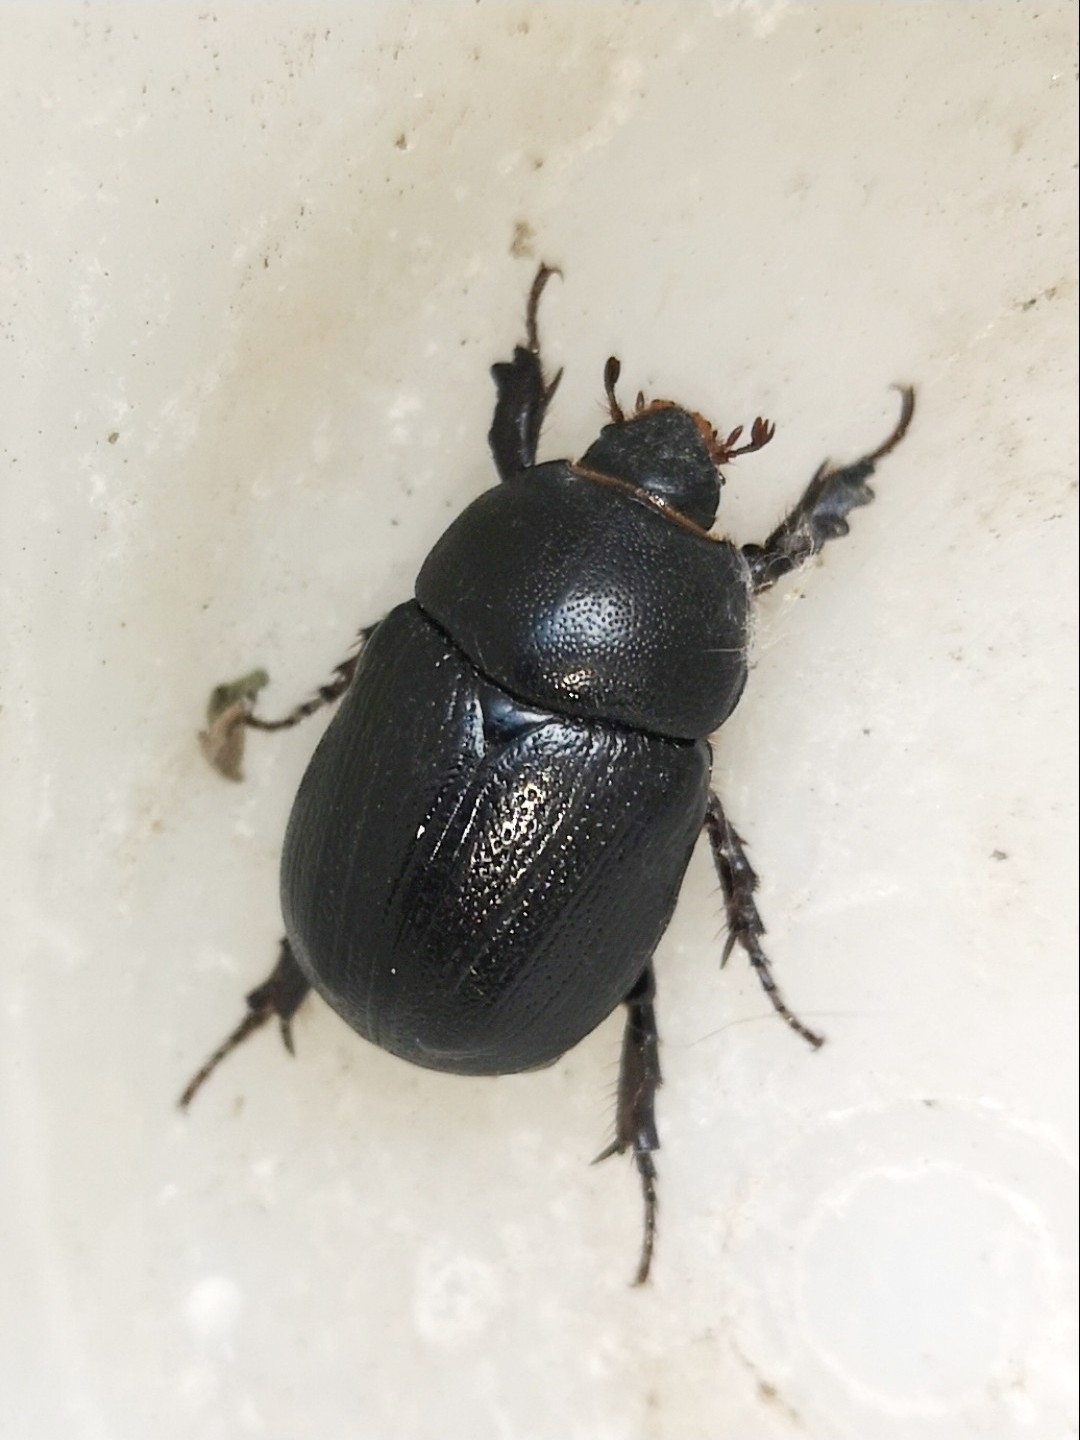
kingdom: Animalia
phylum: Arthropoda
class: Insecta
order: Coleoptera
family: Scarabaeidae
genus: Pentodon
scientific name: Pentodon bidens
